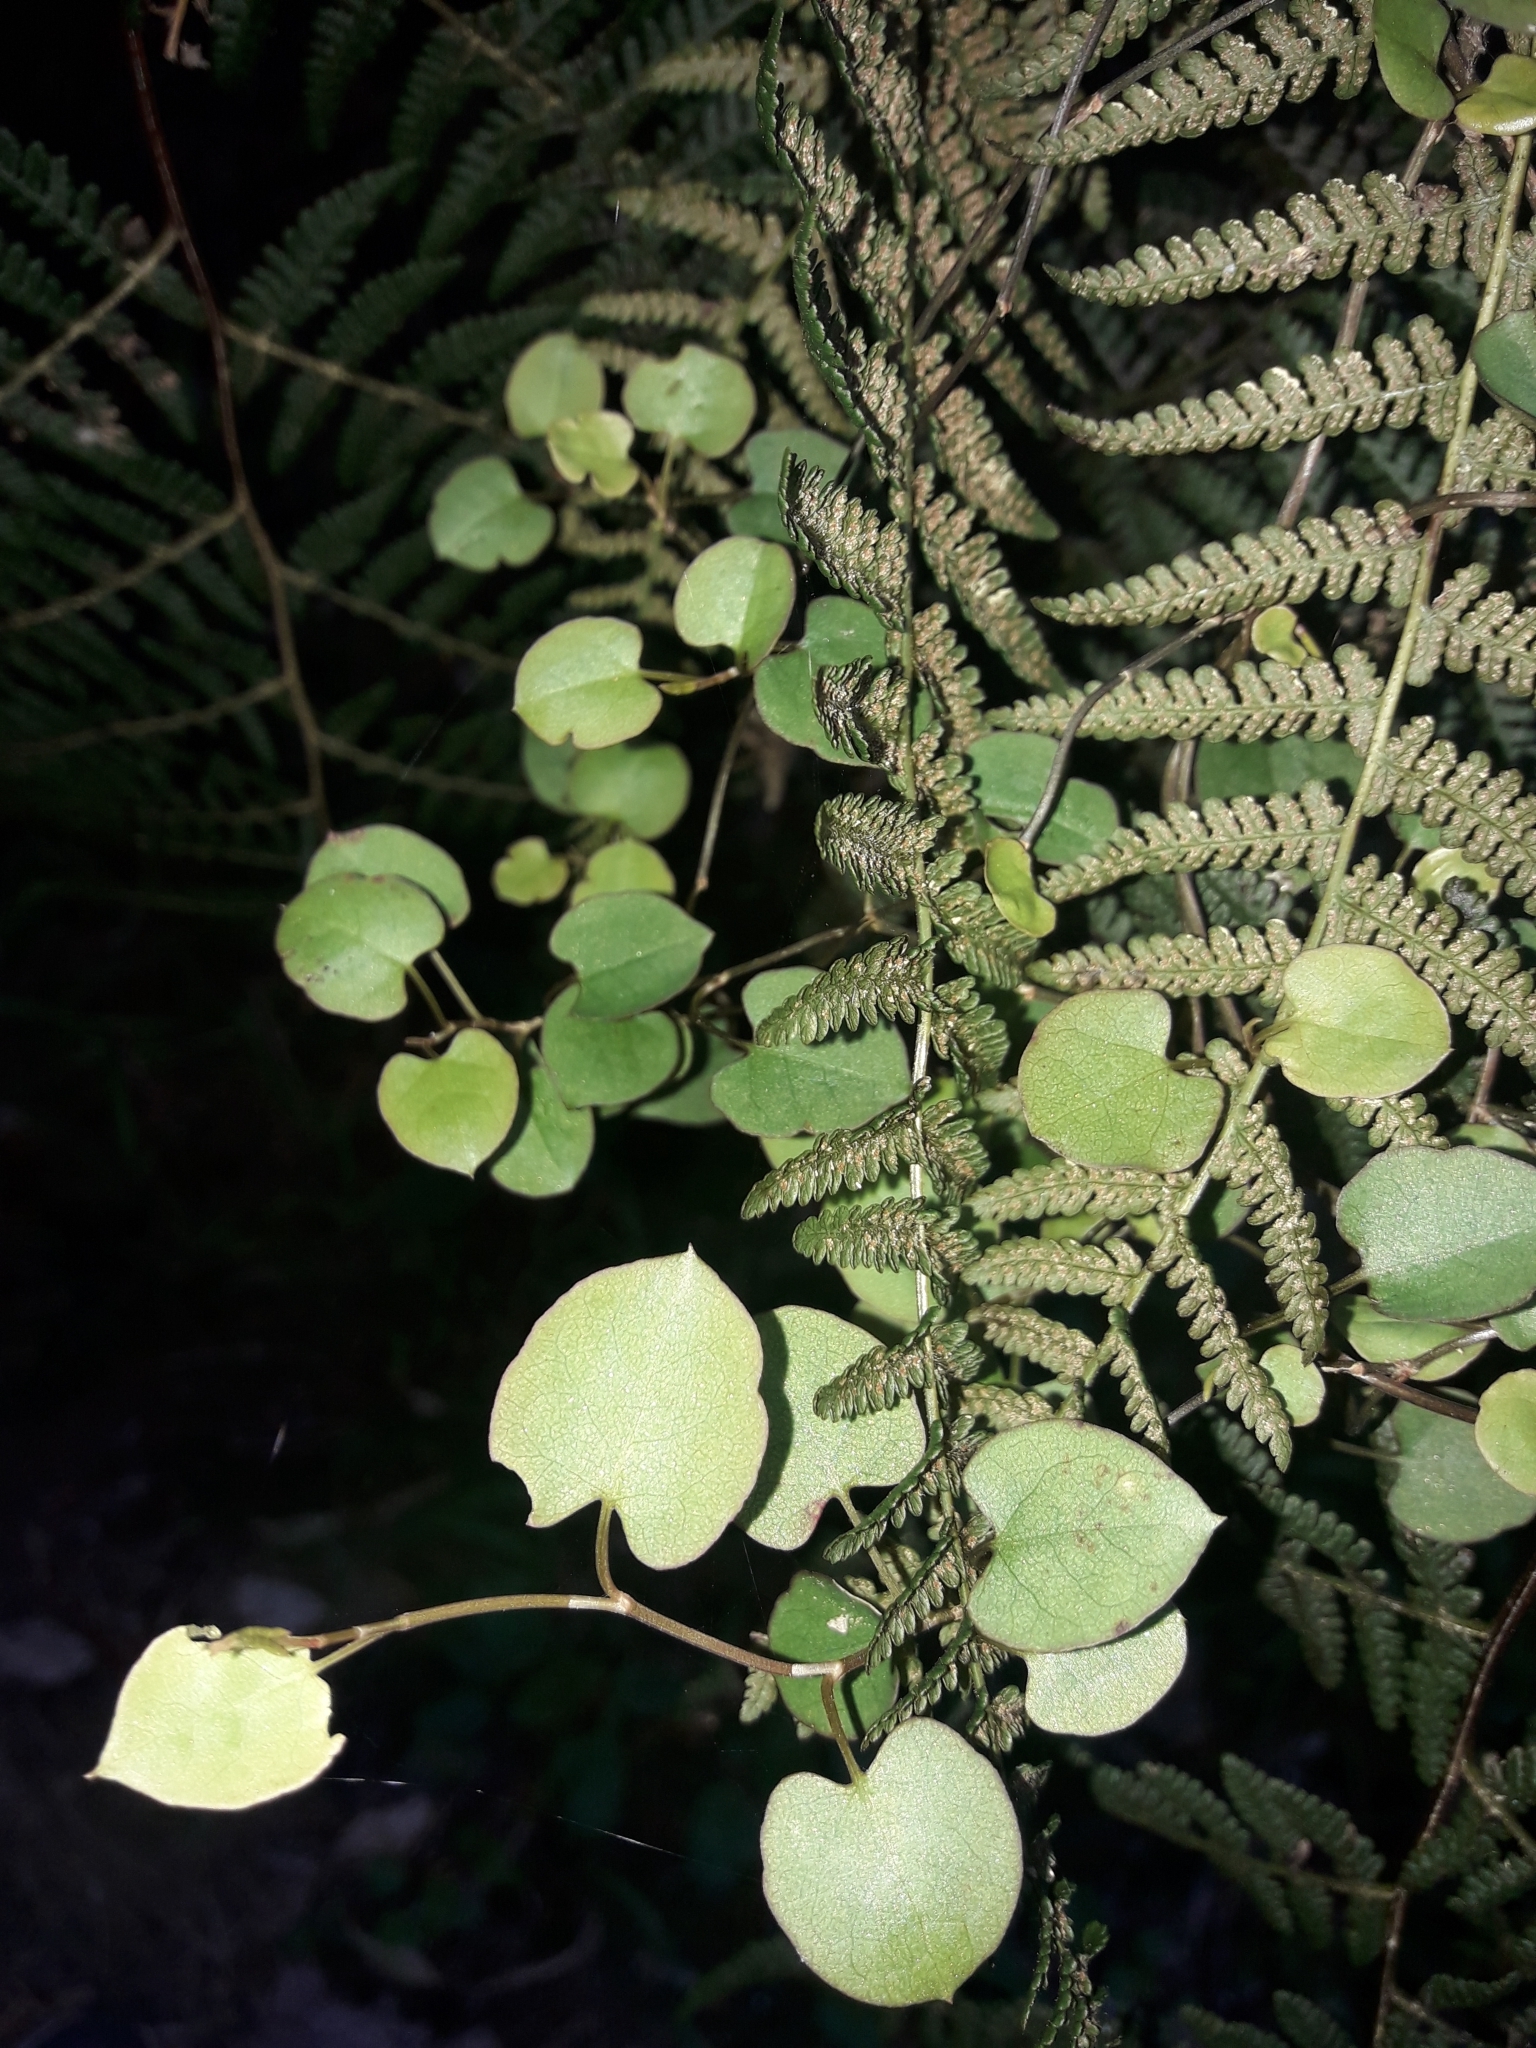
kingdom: Plantae
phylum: Tracheophyta
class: Magnoliopsida
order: Caryophyllales
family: Polygonaceae
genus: Muehlenbeckia
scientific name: Muehlenbeckia australis
